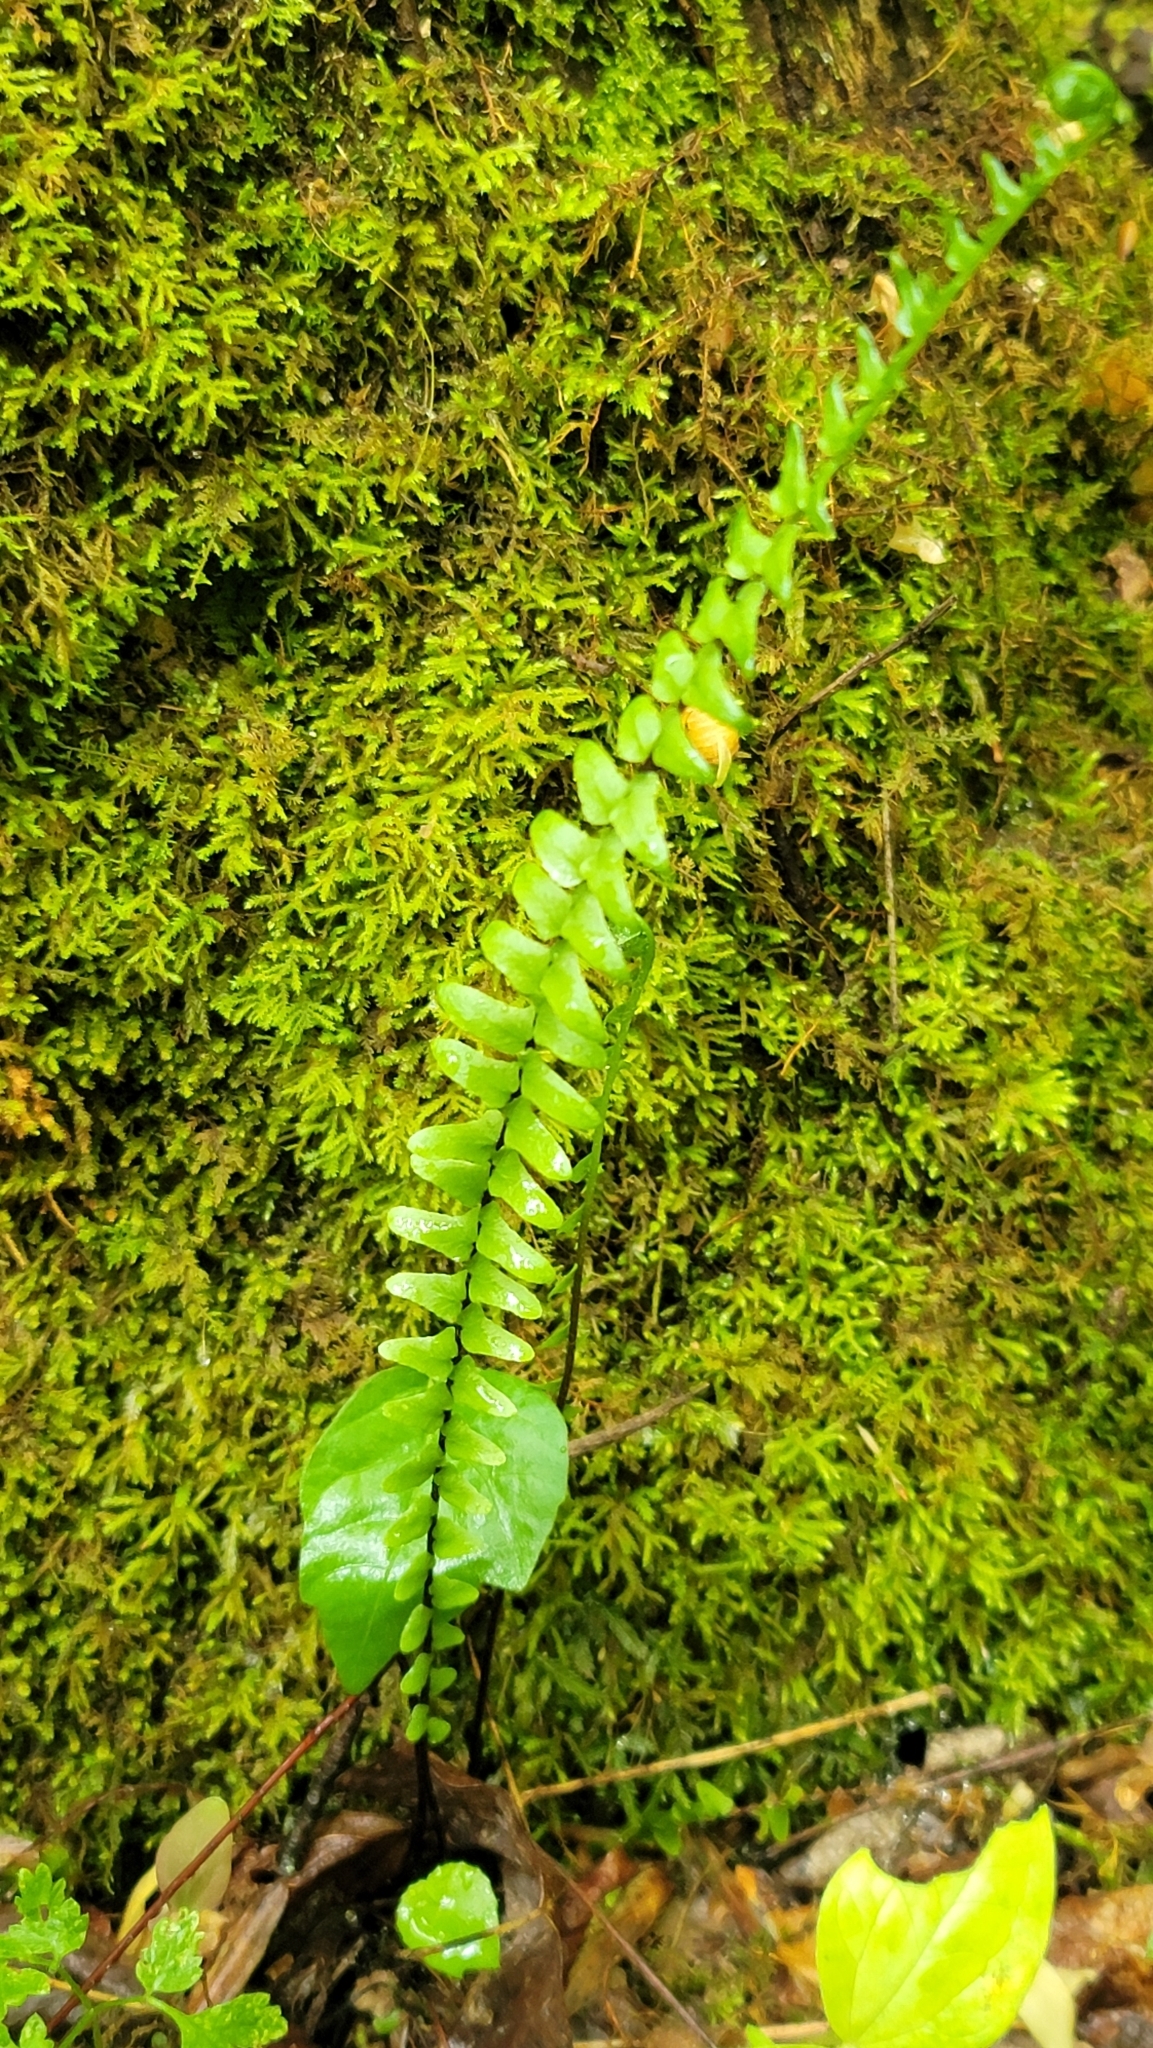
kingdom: Plantae
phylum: Tracheophyta
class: Polypodiopsida
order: Polypodiales
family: Aspleniaceae
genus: Asplenium
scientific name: Asplenium platyneuron
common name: Ebony spleenwort
